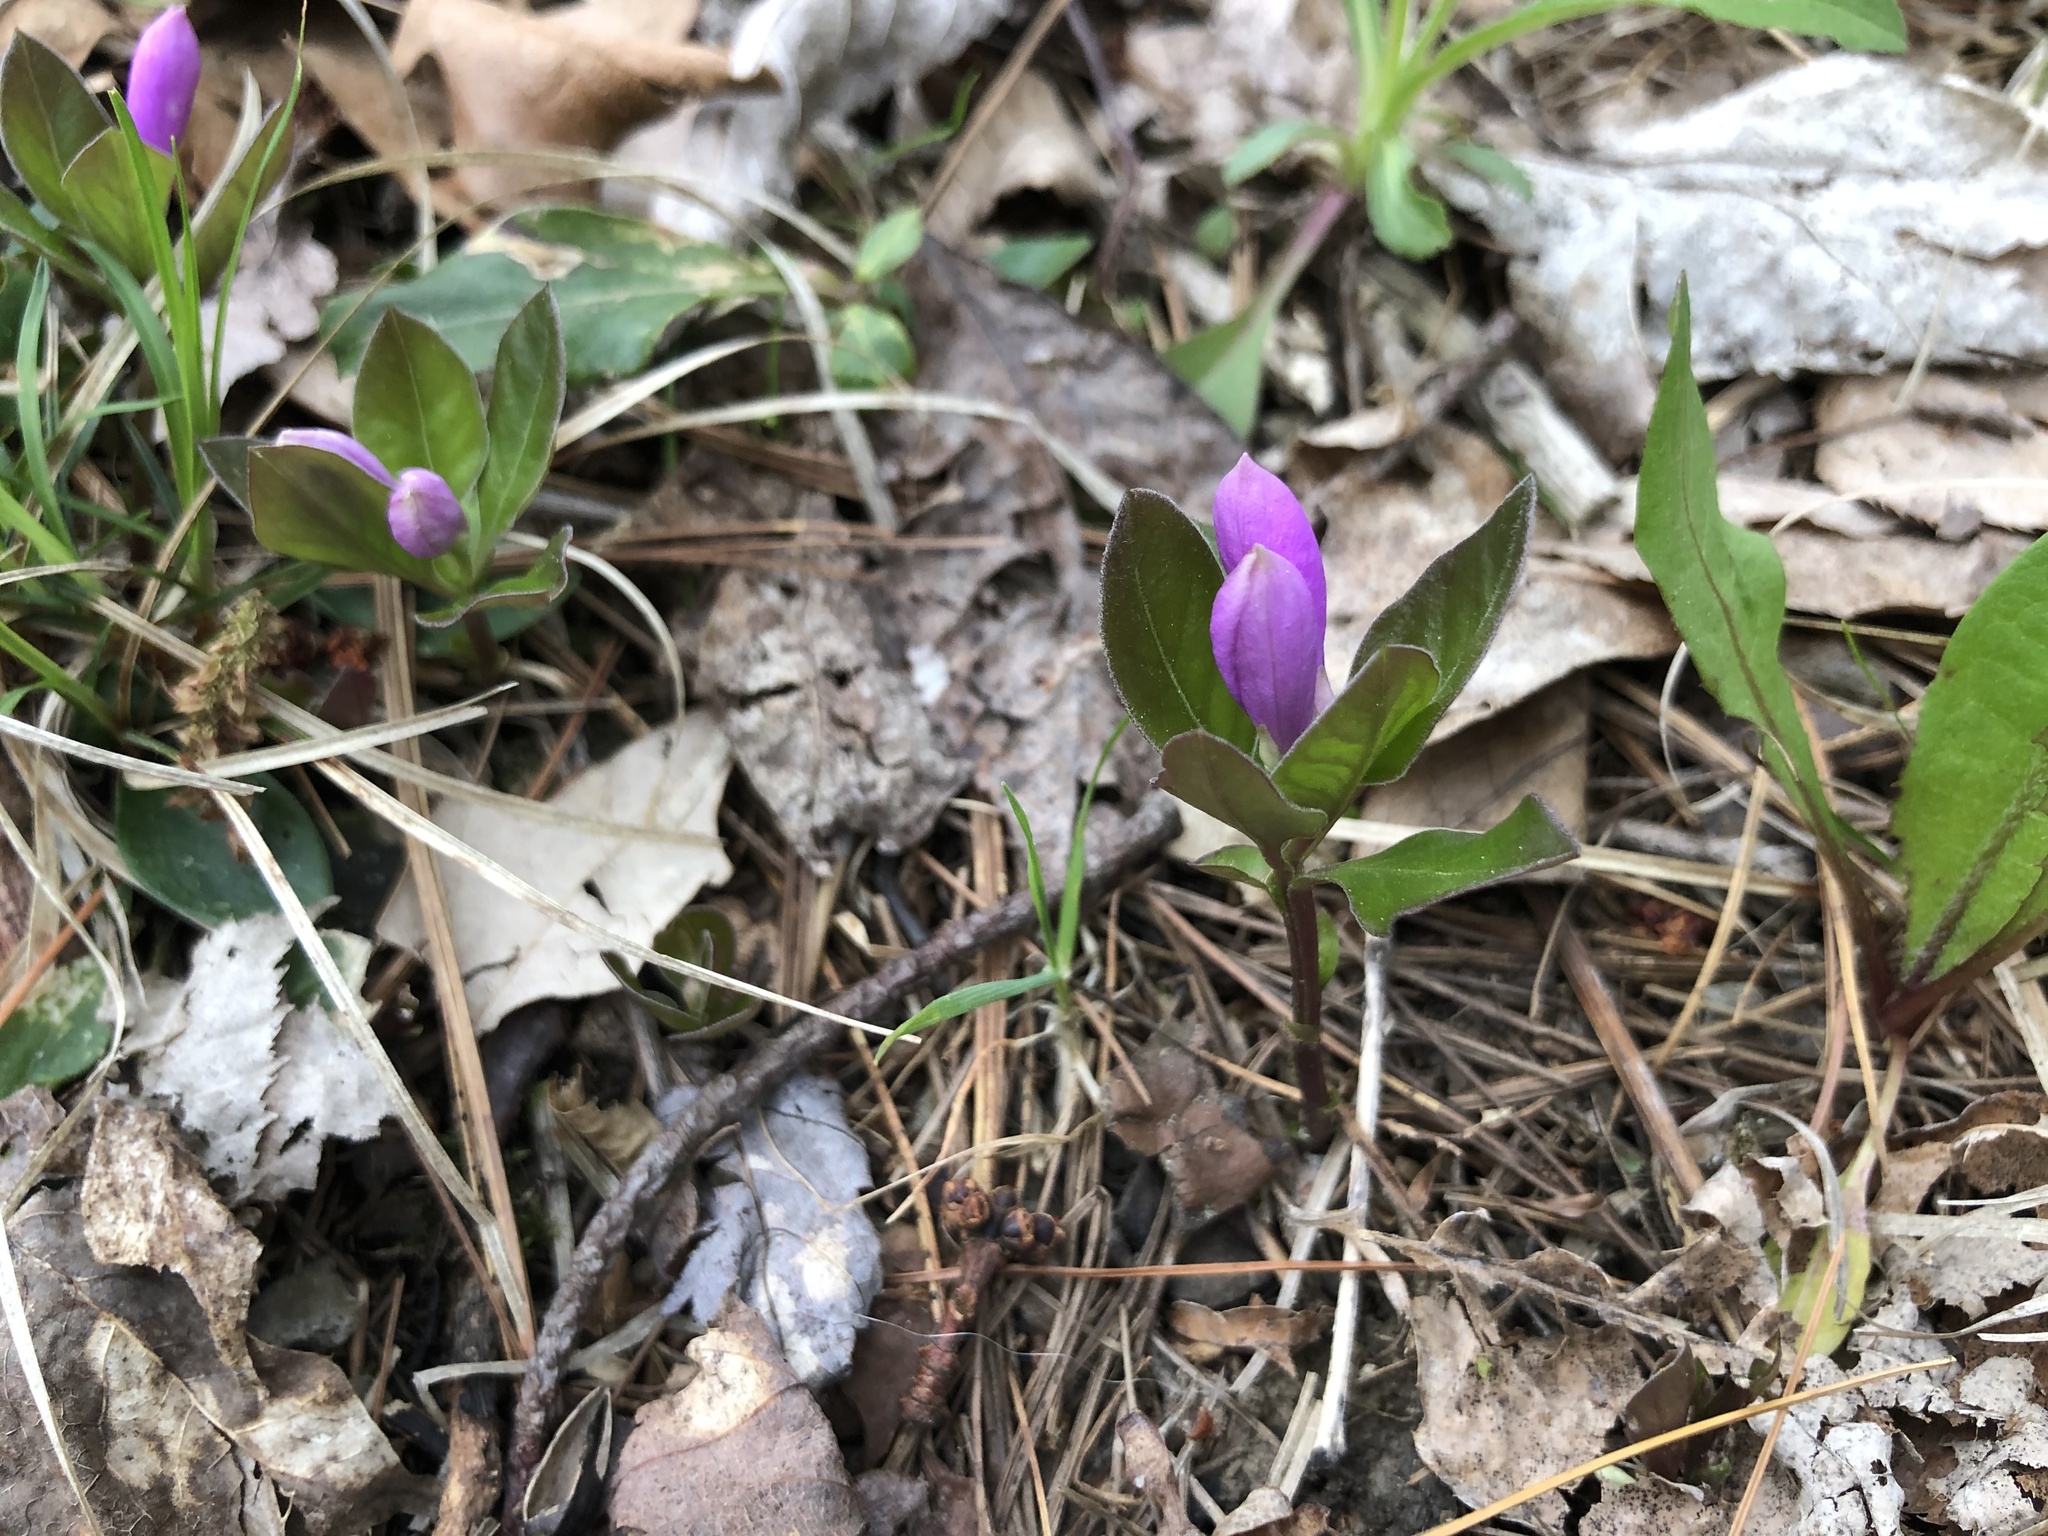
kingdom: Plantae
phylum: Tracheophyta
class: Magnoliopsida
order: Fabales
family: Polygalaceae
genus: Polygaloides
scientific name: Polygaloides paucifolia
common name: Bird-on-the-wing
